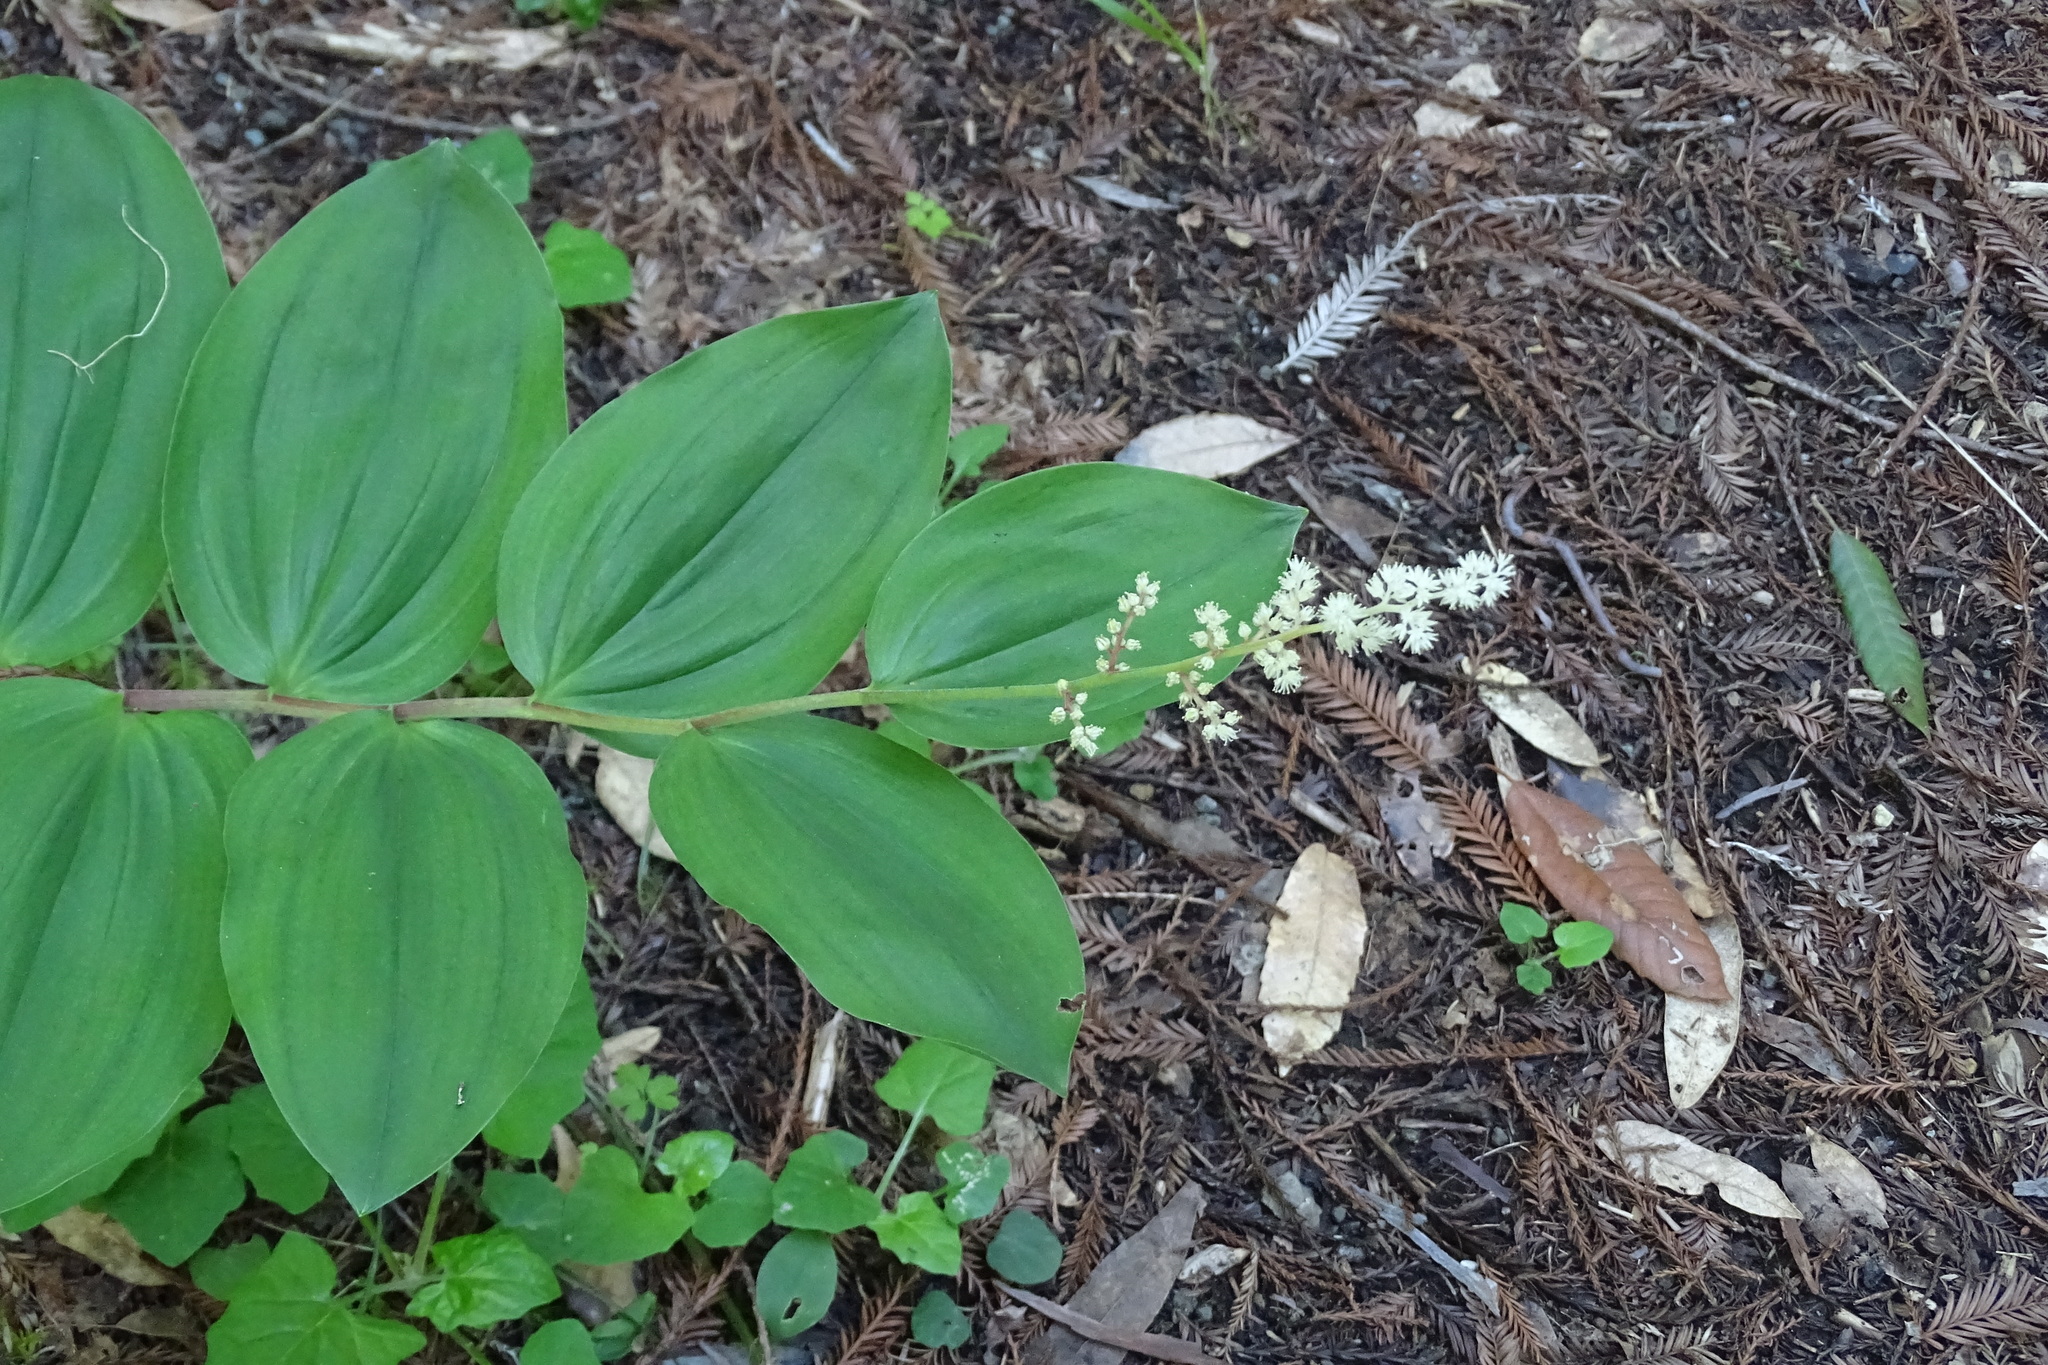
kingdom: Plantae
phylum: Tracheophyta
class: Liliopsida
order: Asparagales
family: Asparagaceae
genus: Maianthemum
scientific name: Maianthemum racemosum
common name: False spikenard
